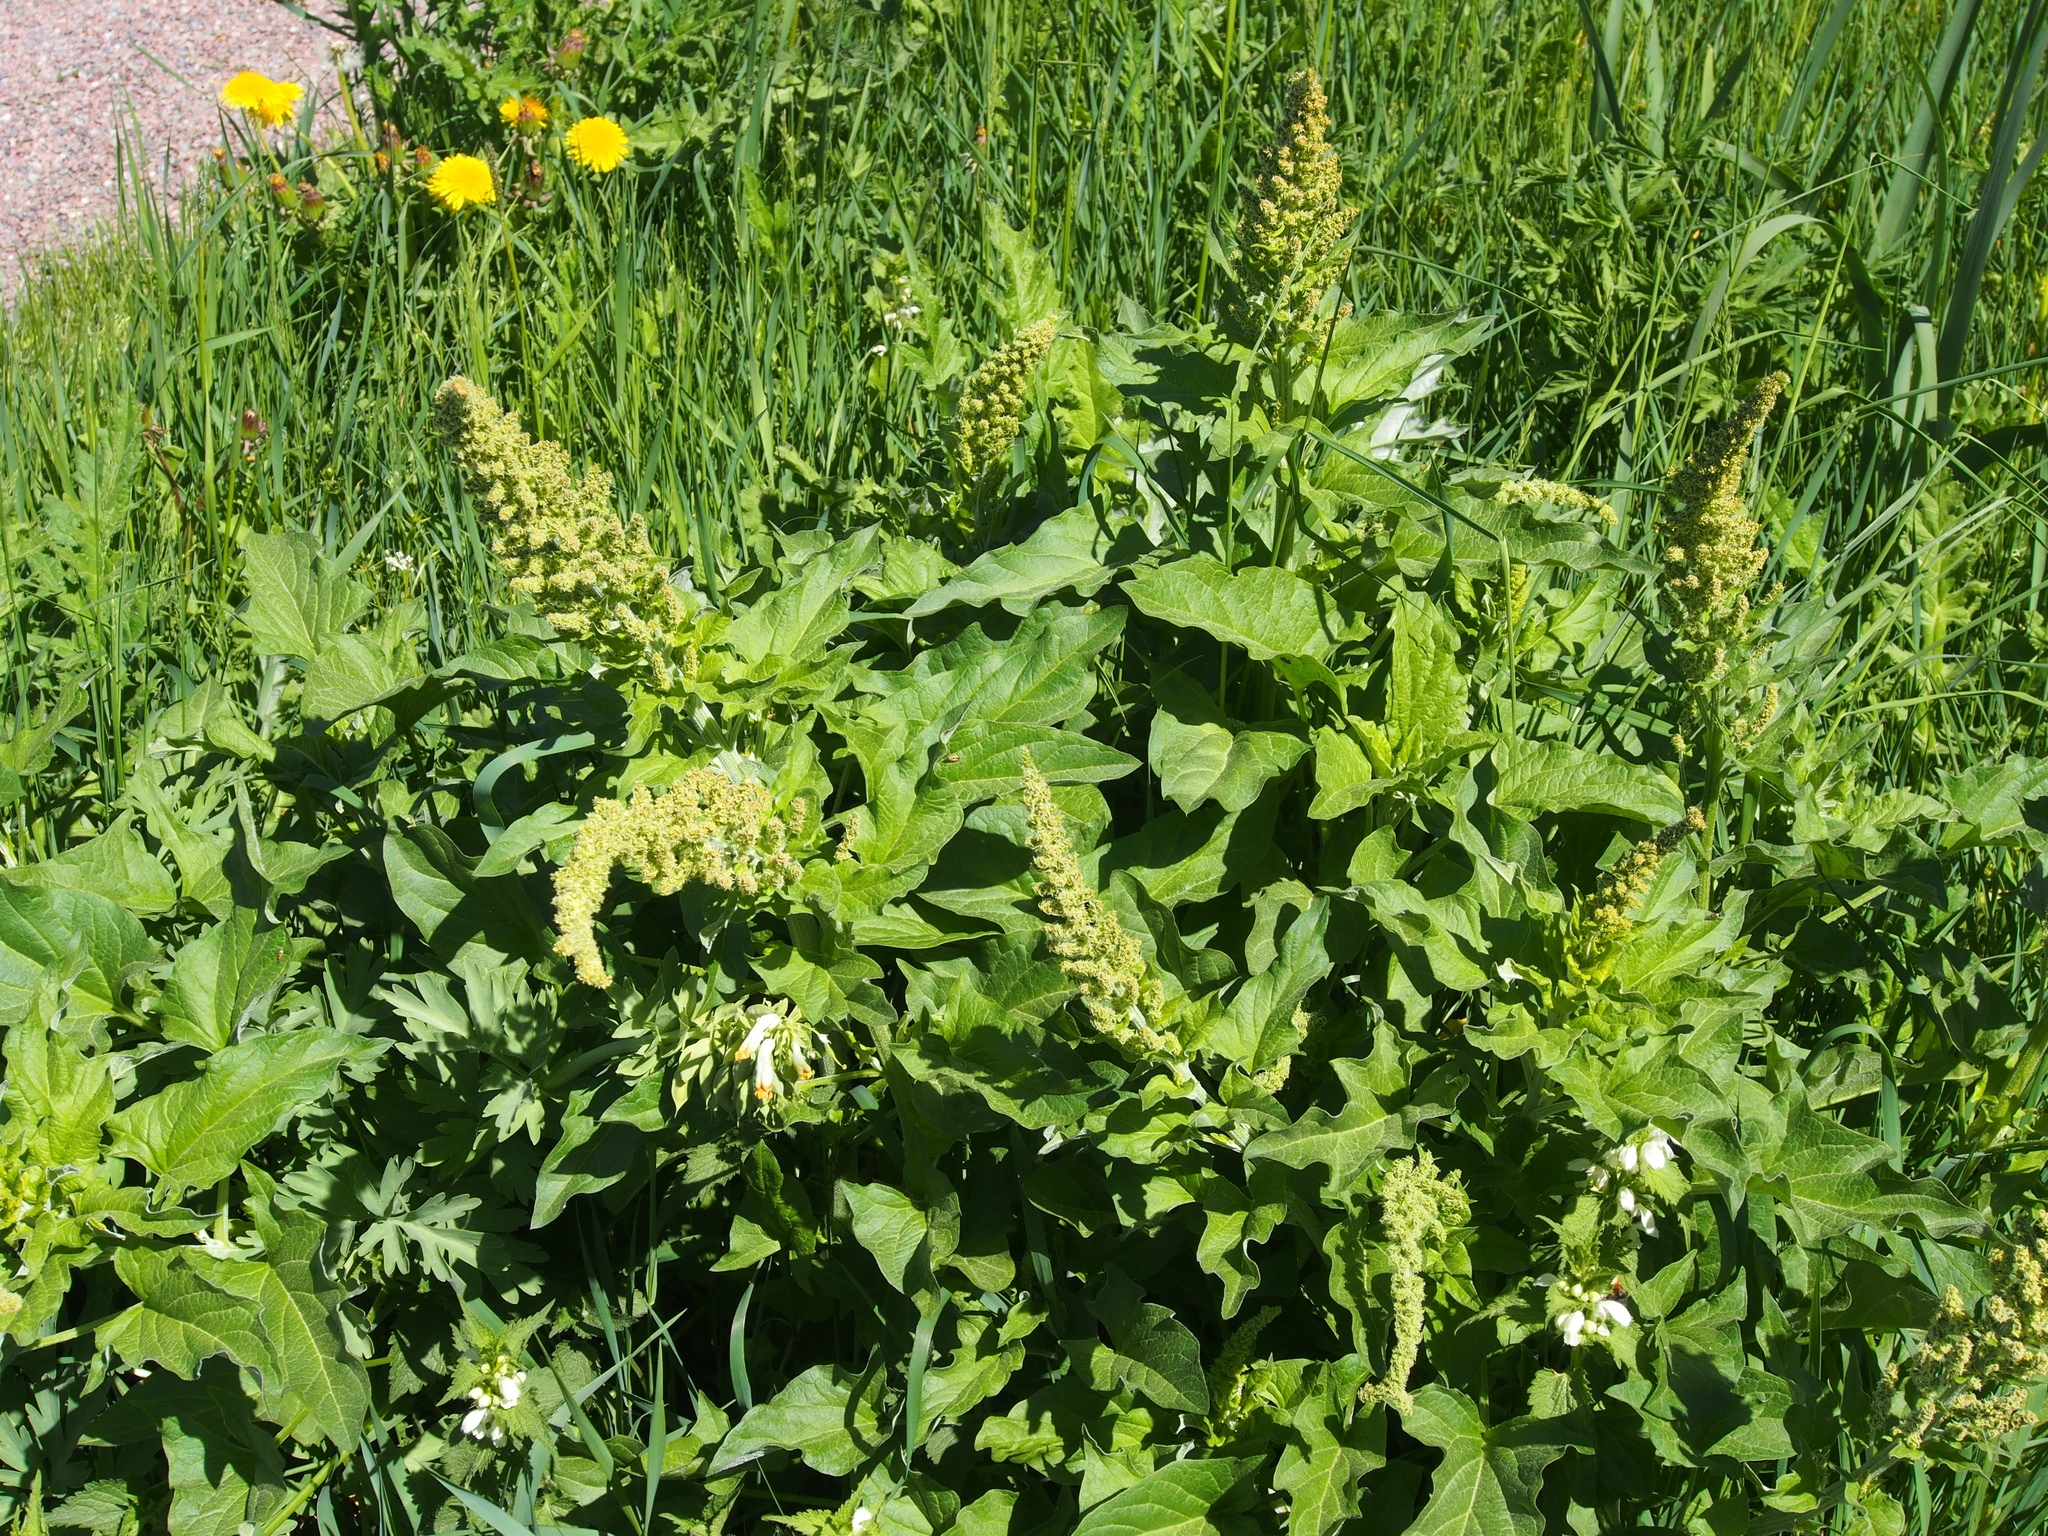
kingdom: Plantae
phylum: Tracheophyta
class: Magnoliopsida
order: Caryophyllales
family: Amaranthaceae
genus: Blitum
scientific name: Blitum bonus-henricus
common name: Good king henry
